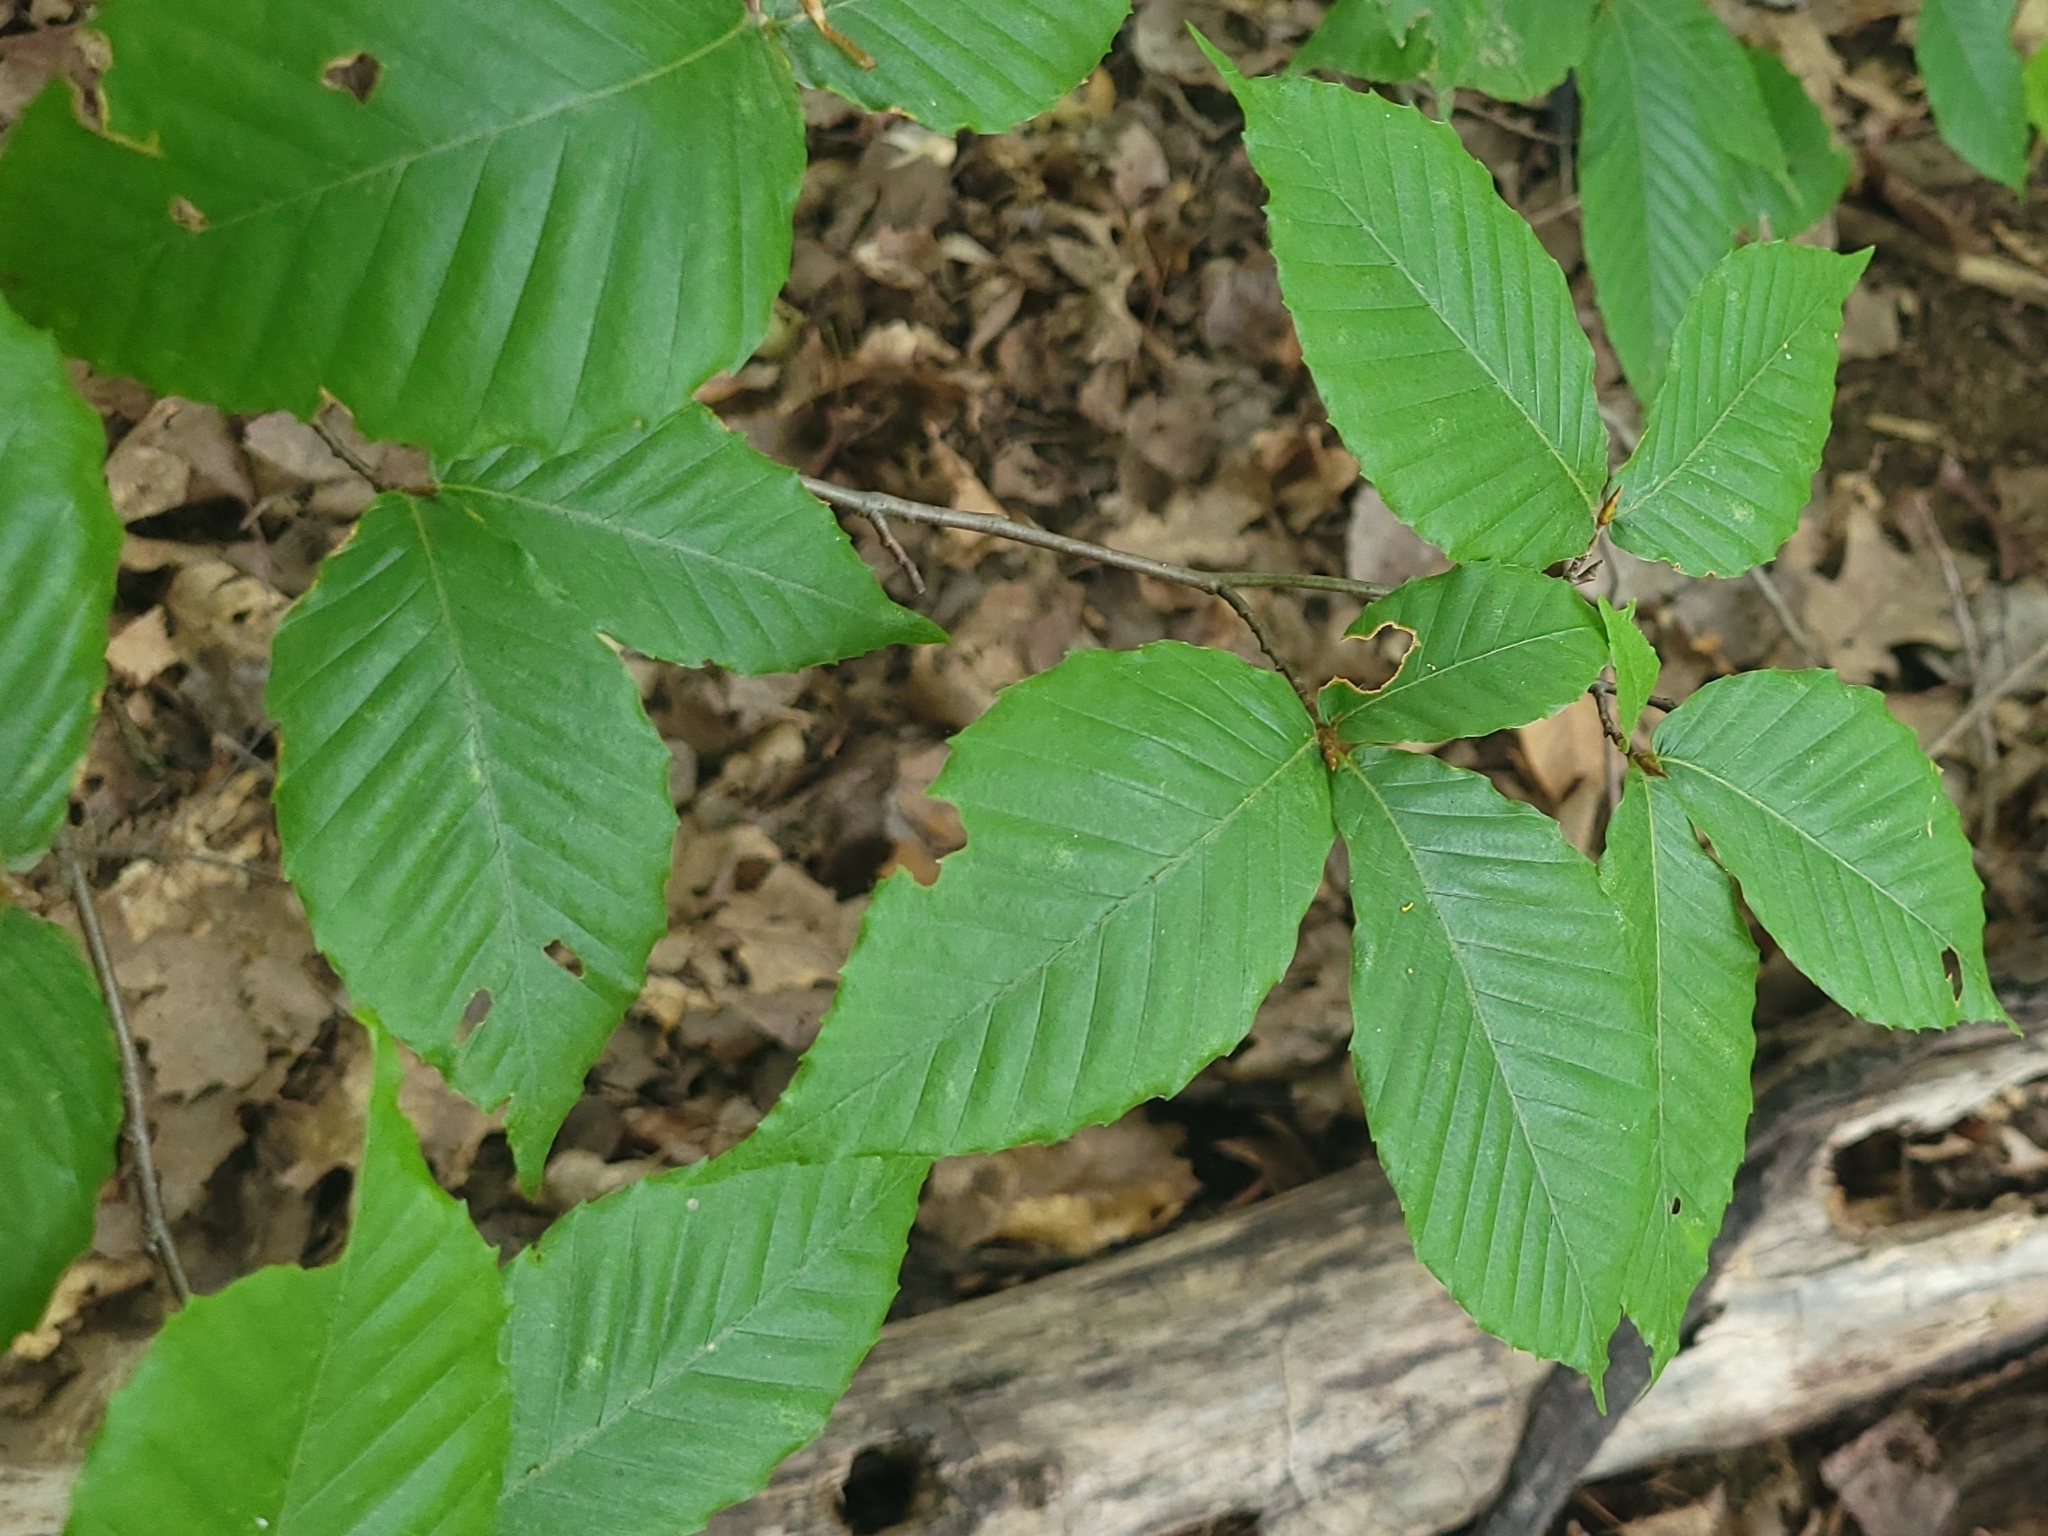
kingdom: Plantae
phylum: Tracheophyta
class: Magnoliopsida
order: Fagales
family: Fagaceae
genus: Fagus
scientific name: Fagus grandifolia
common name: American beech
